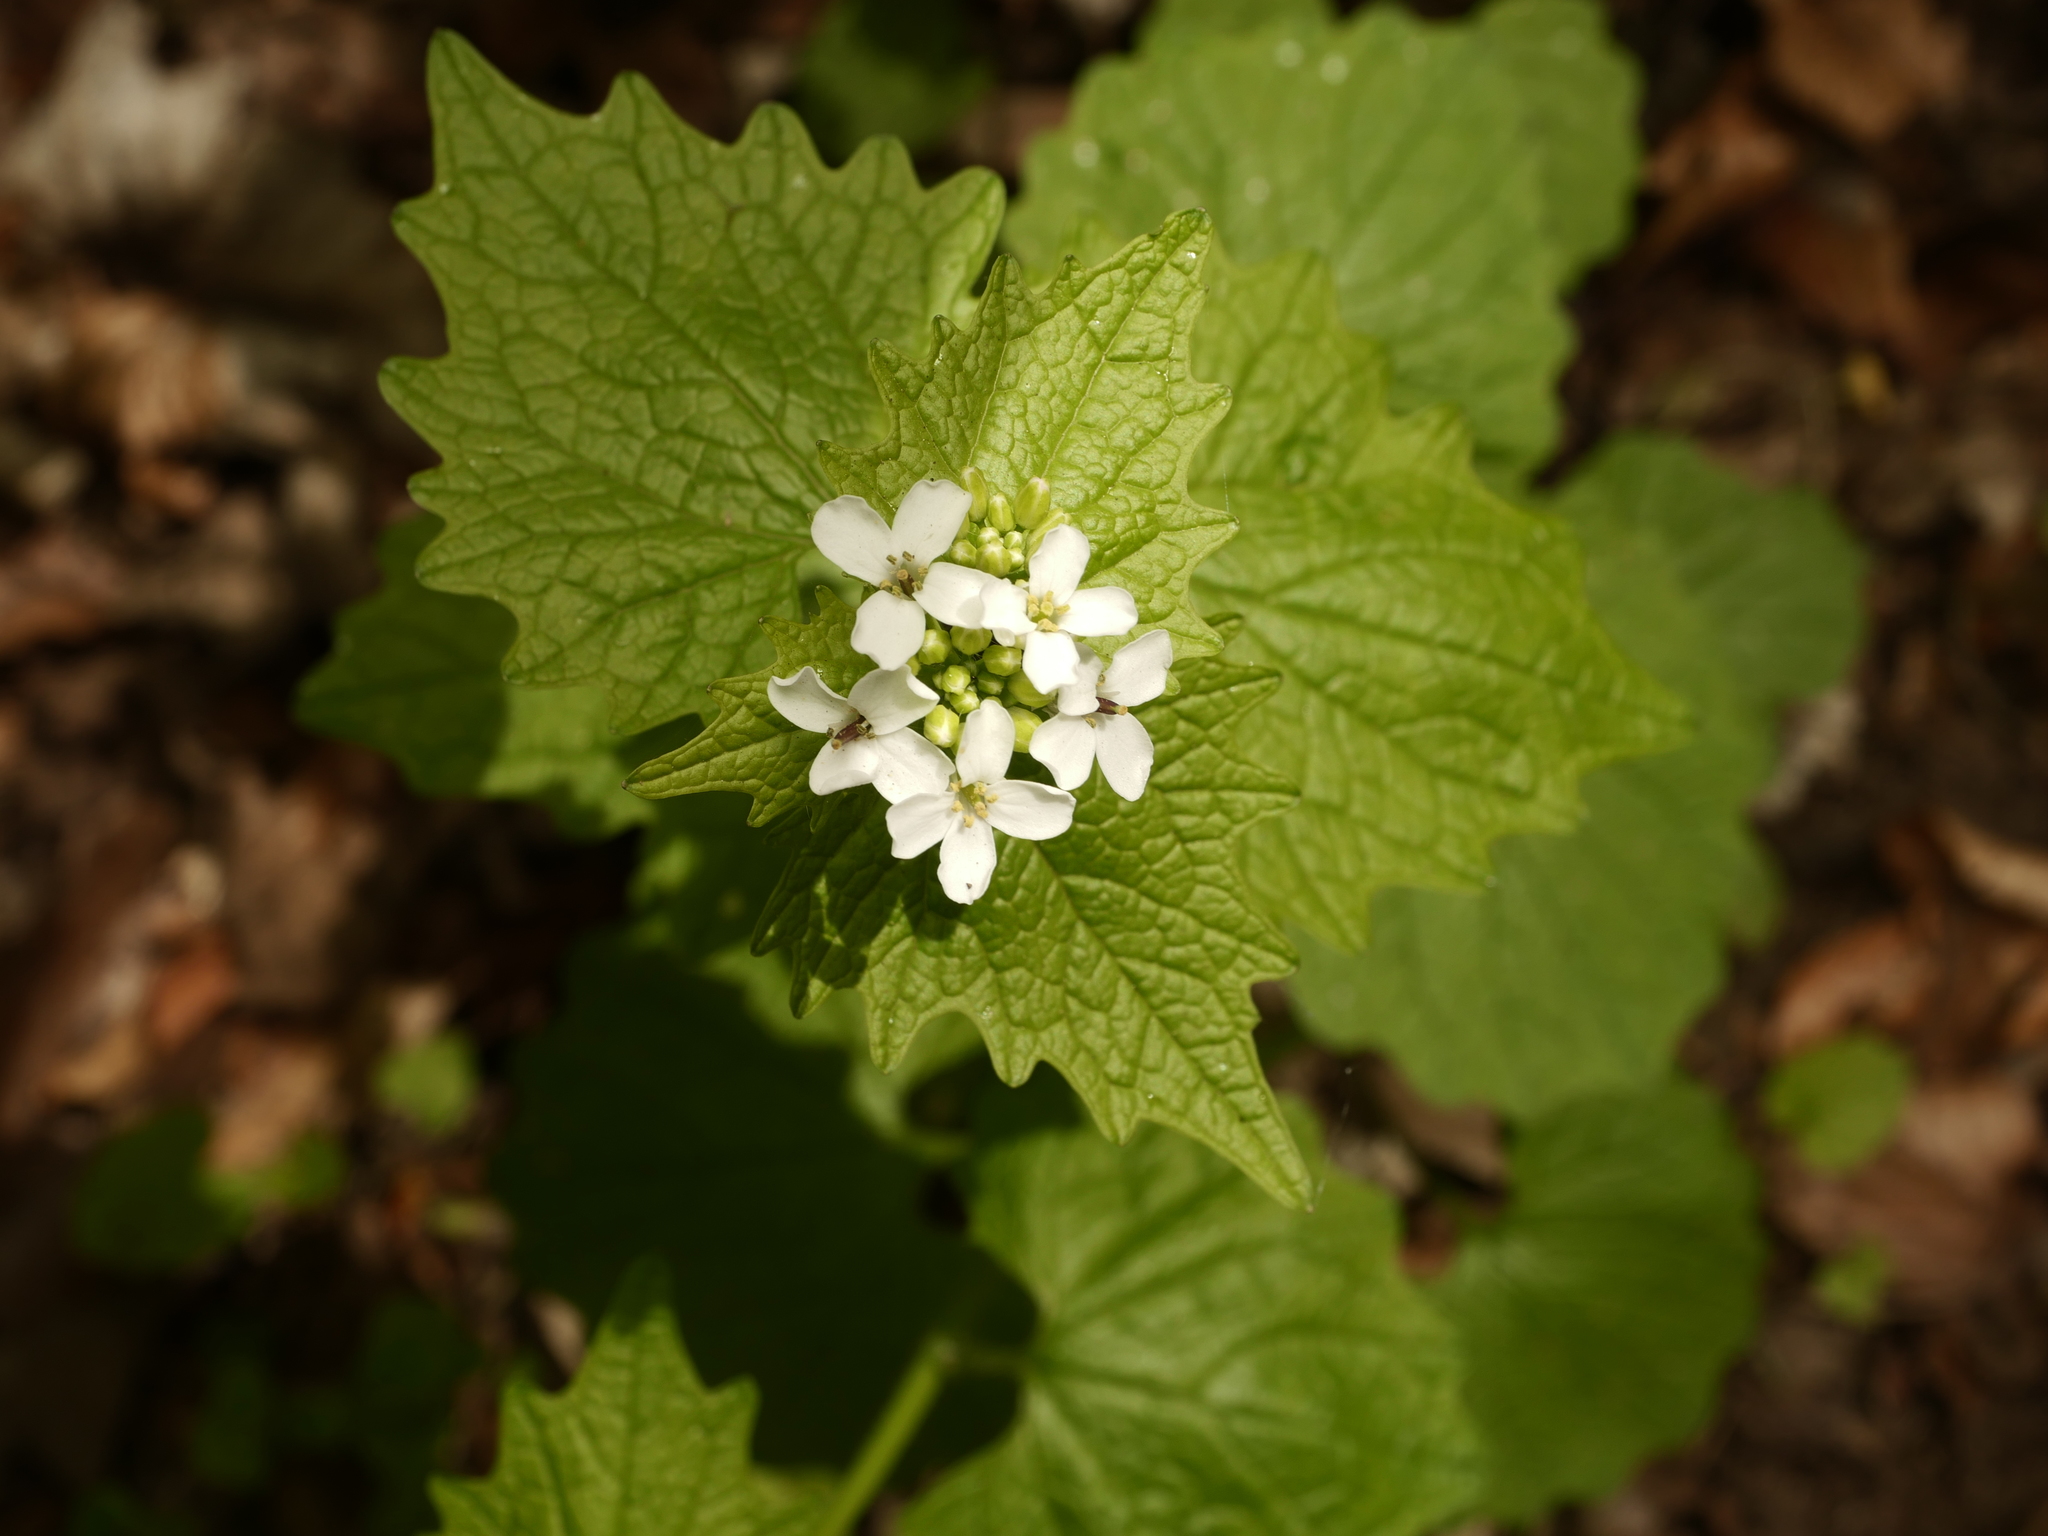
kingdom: Plantae
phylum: Tracheophyta
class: Magnoliopsida
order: Brassicales
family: Brassicaceae
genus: Alliaria
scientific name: Alliaria petiolata
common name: Garlic mustard
